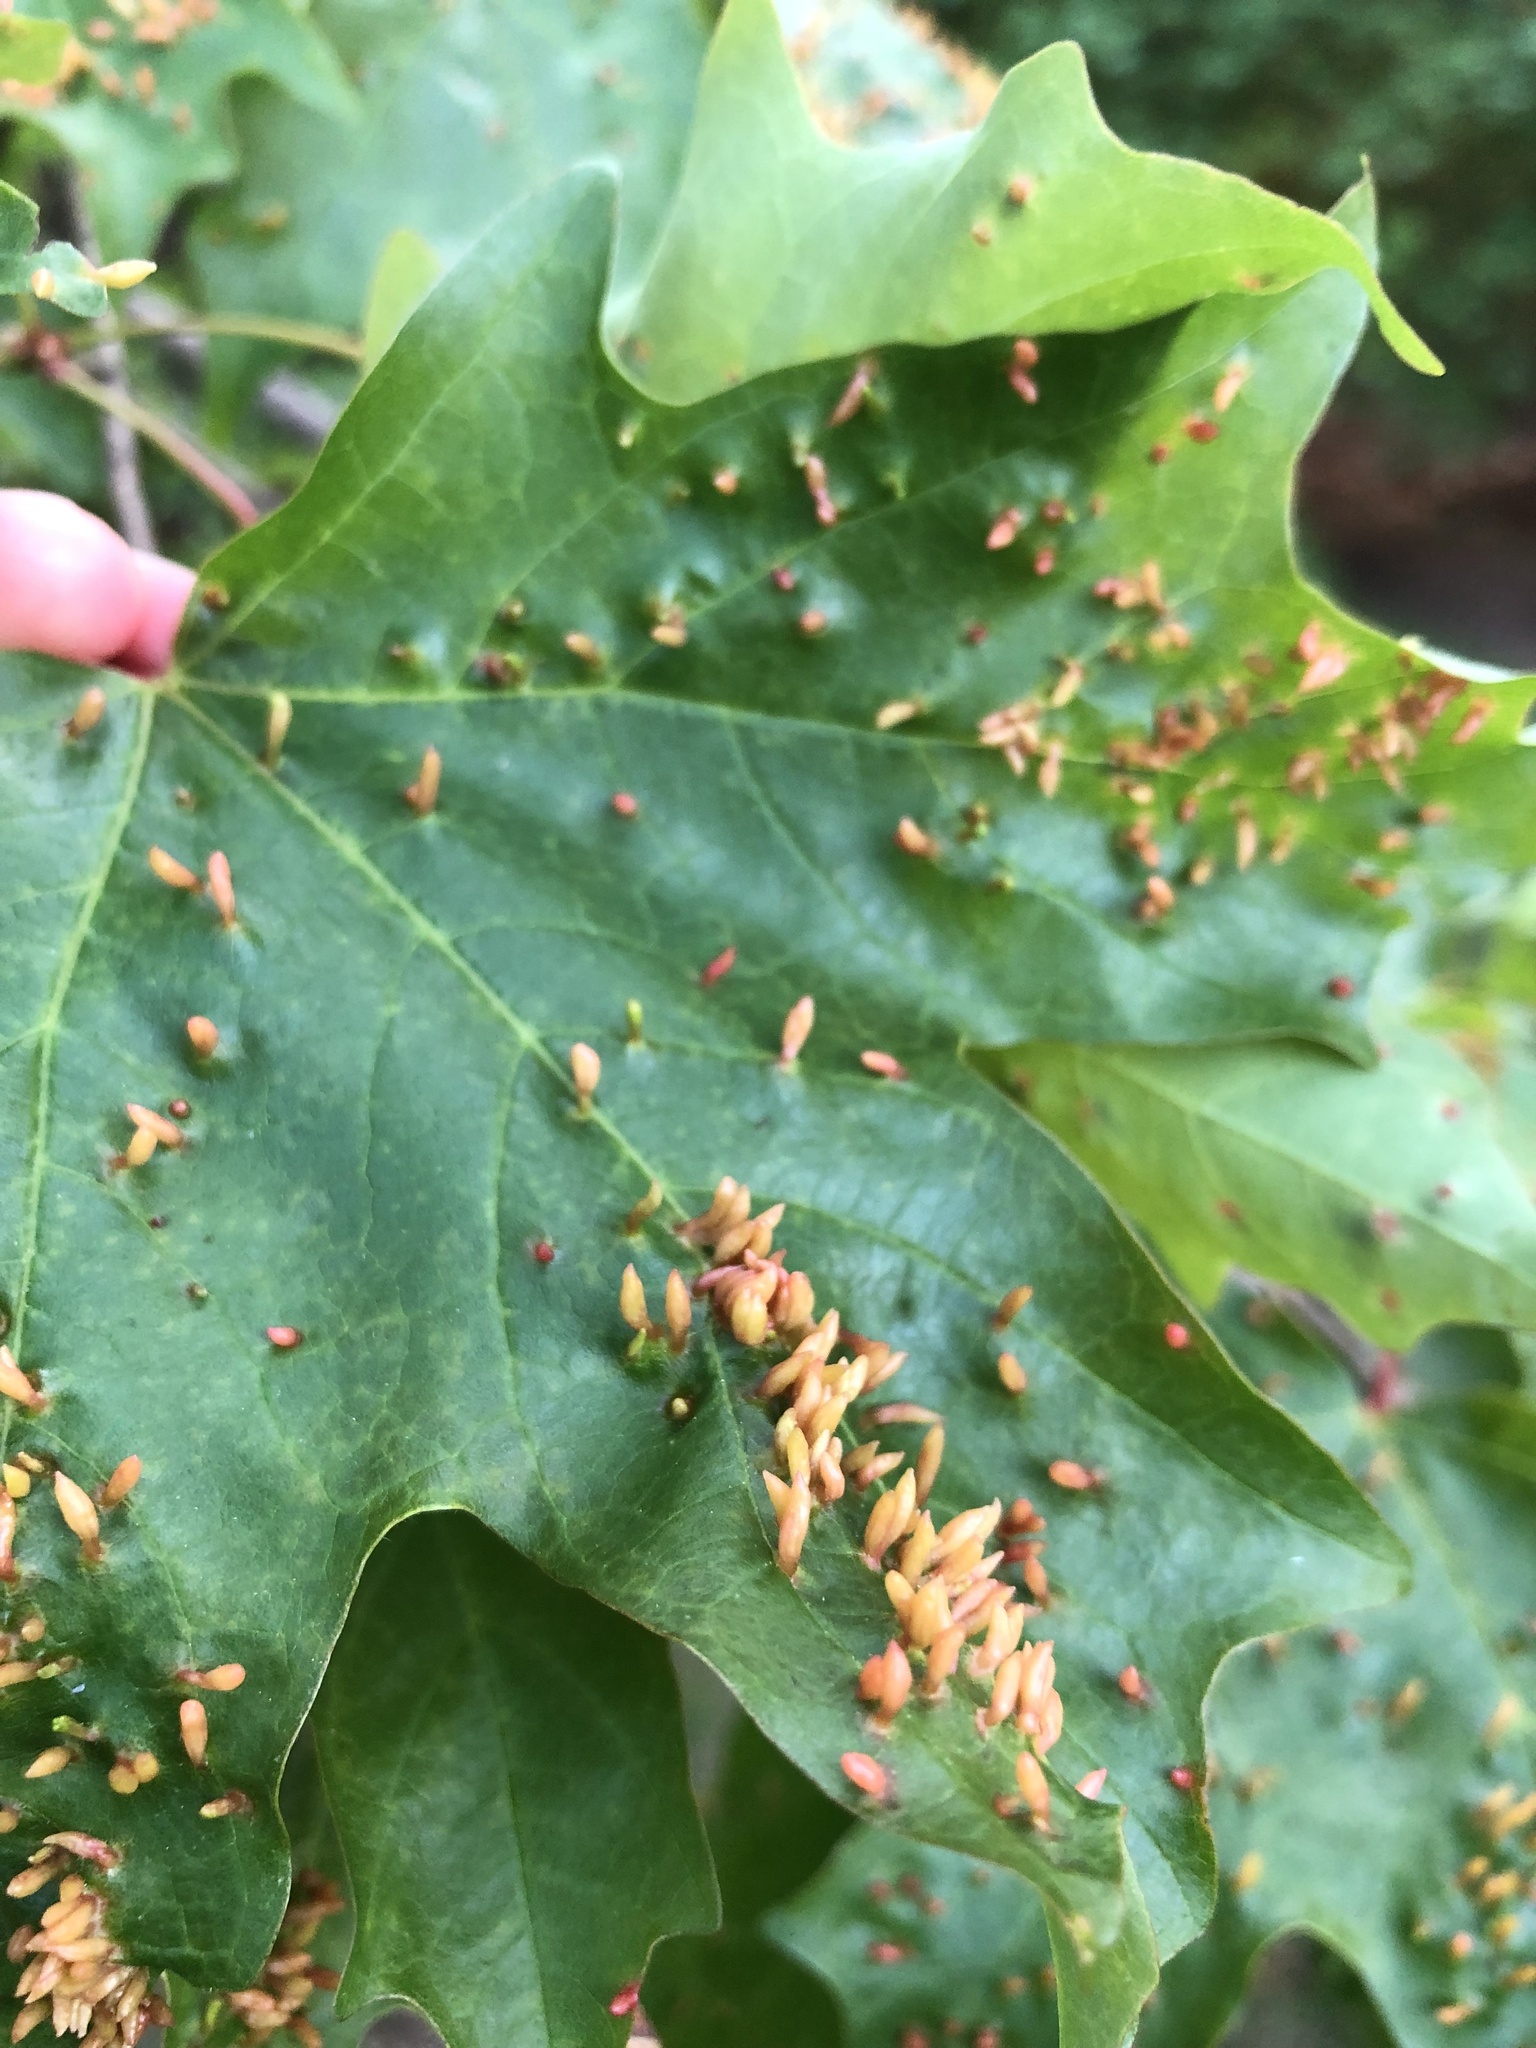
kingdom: Animalia
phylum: Arthropoda
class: Arachnida
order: Trombidiformes
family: Eriophyidae
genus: Vasates
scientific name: Vasates aceriscrumena
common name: Maple spindle gall mite
